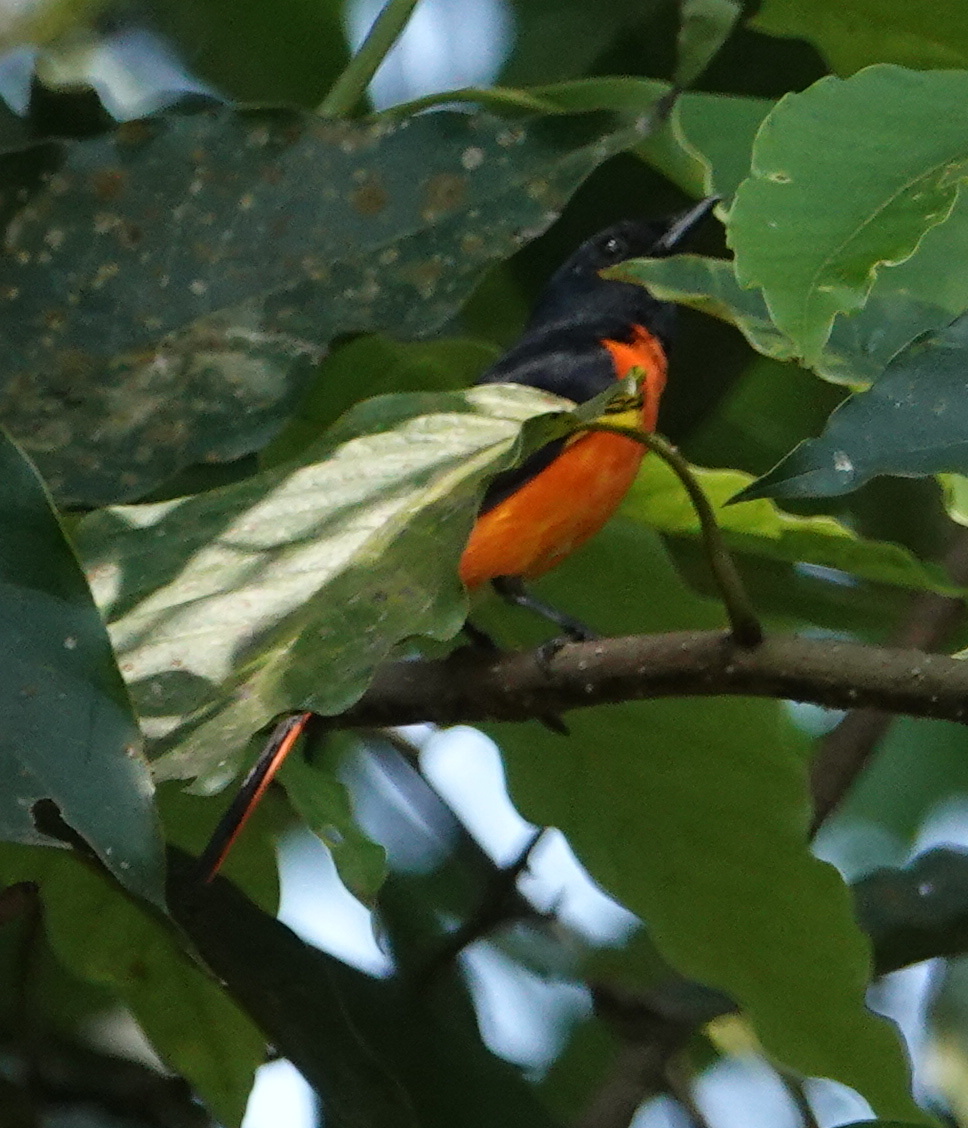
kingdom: Animalia
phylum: Chordata
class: Aves
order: Passeriformes
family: Campephagidae
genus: Pericrocotus
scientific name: Pericrocotus flammeus
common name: Orange minivet
